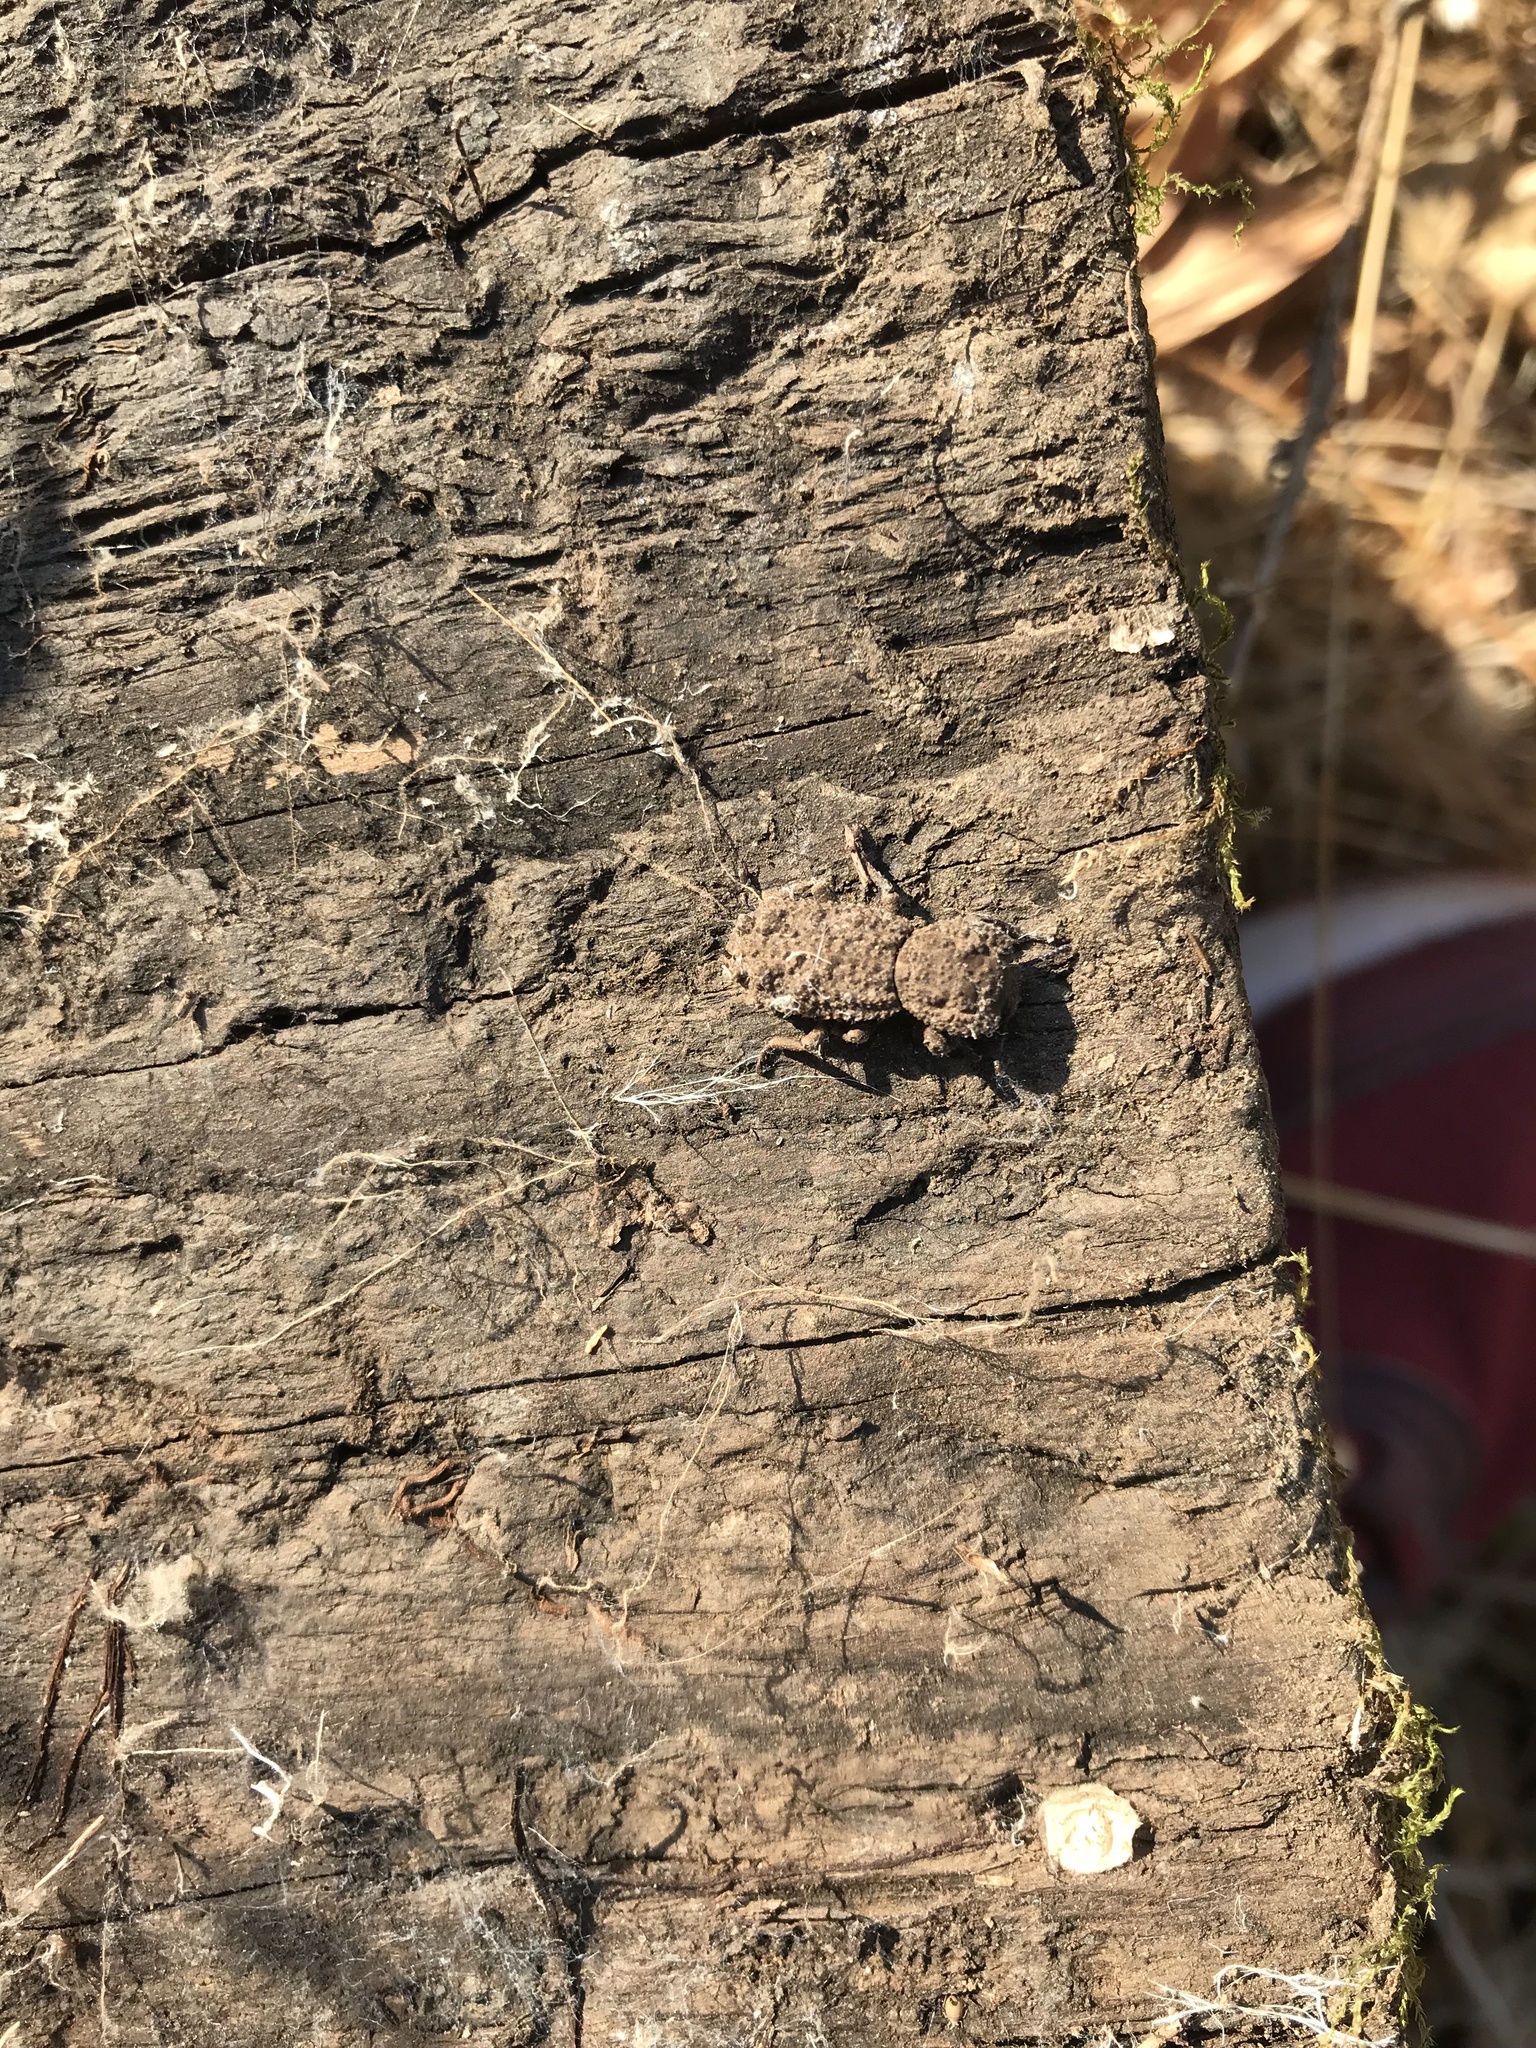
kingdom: Animalia
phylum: Arthropoda
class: Insecta
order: Coleoptera
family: Zopheridae
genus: Phloeodes
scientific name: Phloeodes plicatus
